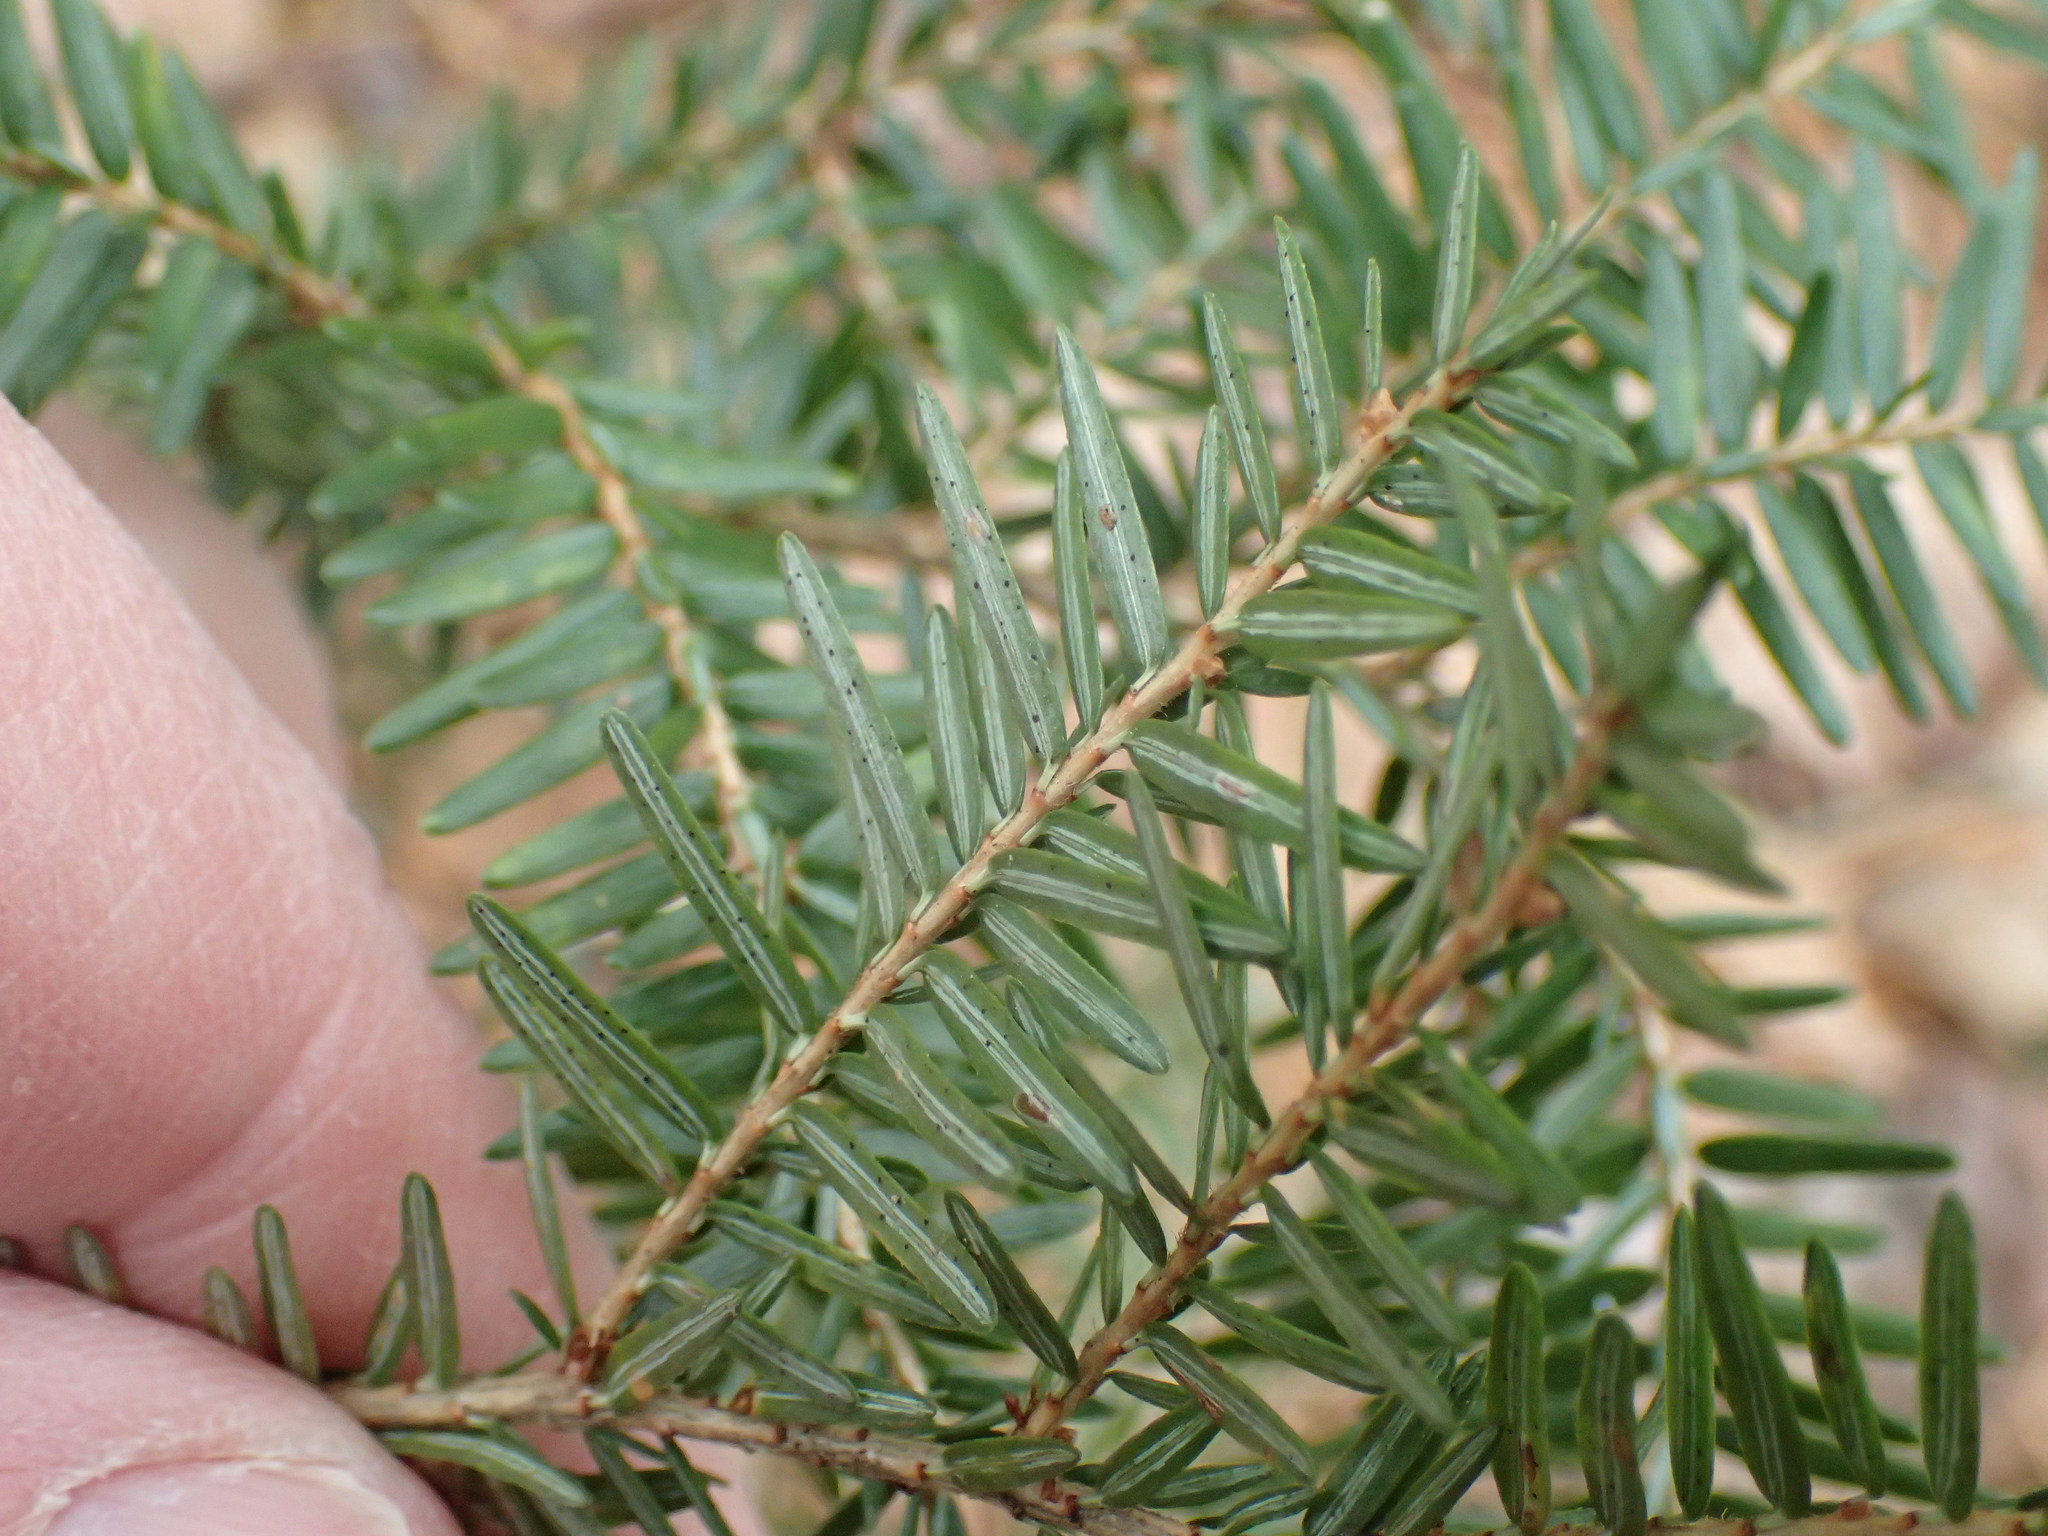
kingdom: Plantae
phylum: Tracheophyta
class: Pinopsida
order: Pinales
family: Pinaceae
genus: Tsuga
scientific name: Tsuga canadensis
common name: Eastern hemlock
